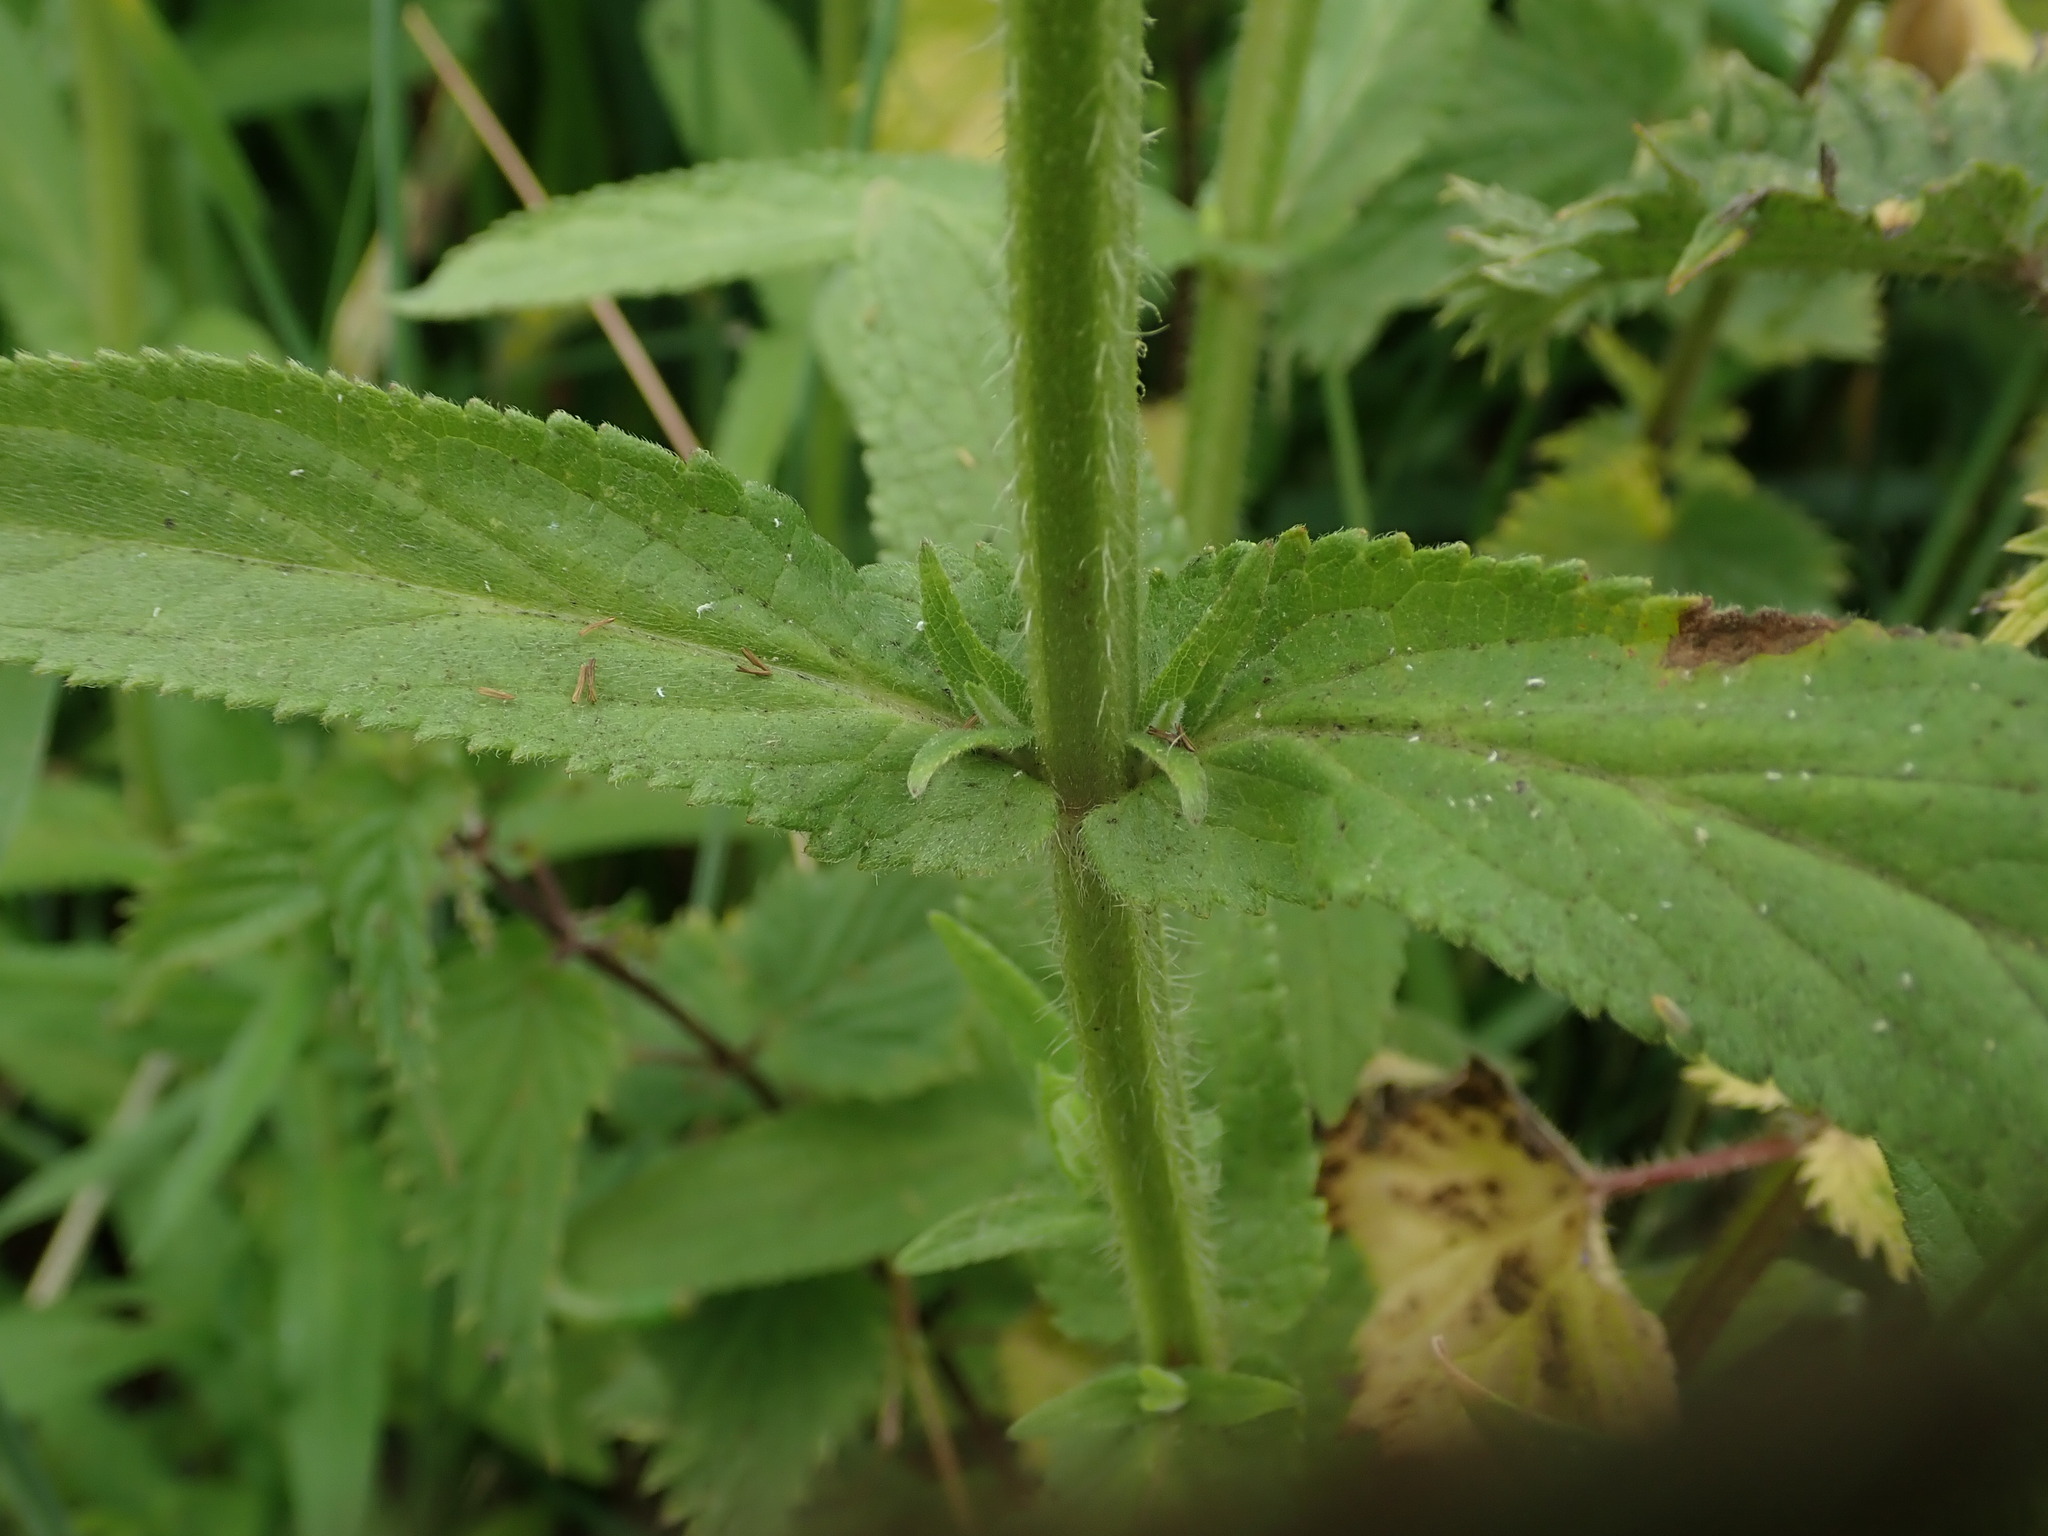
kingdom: Plantae
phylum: Tracheophyta
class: Magnoliopsida
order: Lamiales
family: Lamiaceae
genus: Stachys
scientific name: Stachys palustris
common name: Marsh woundwort
